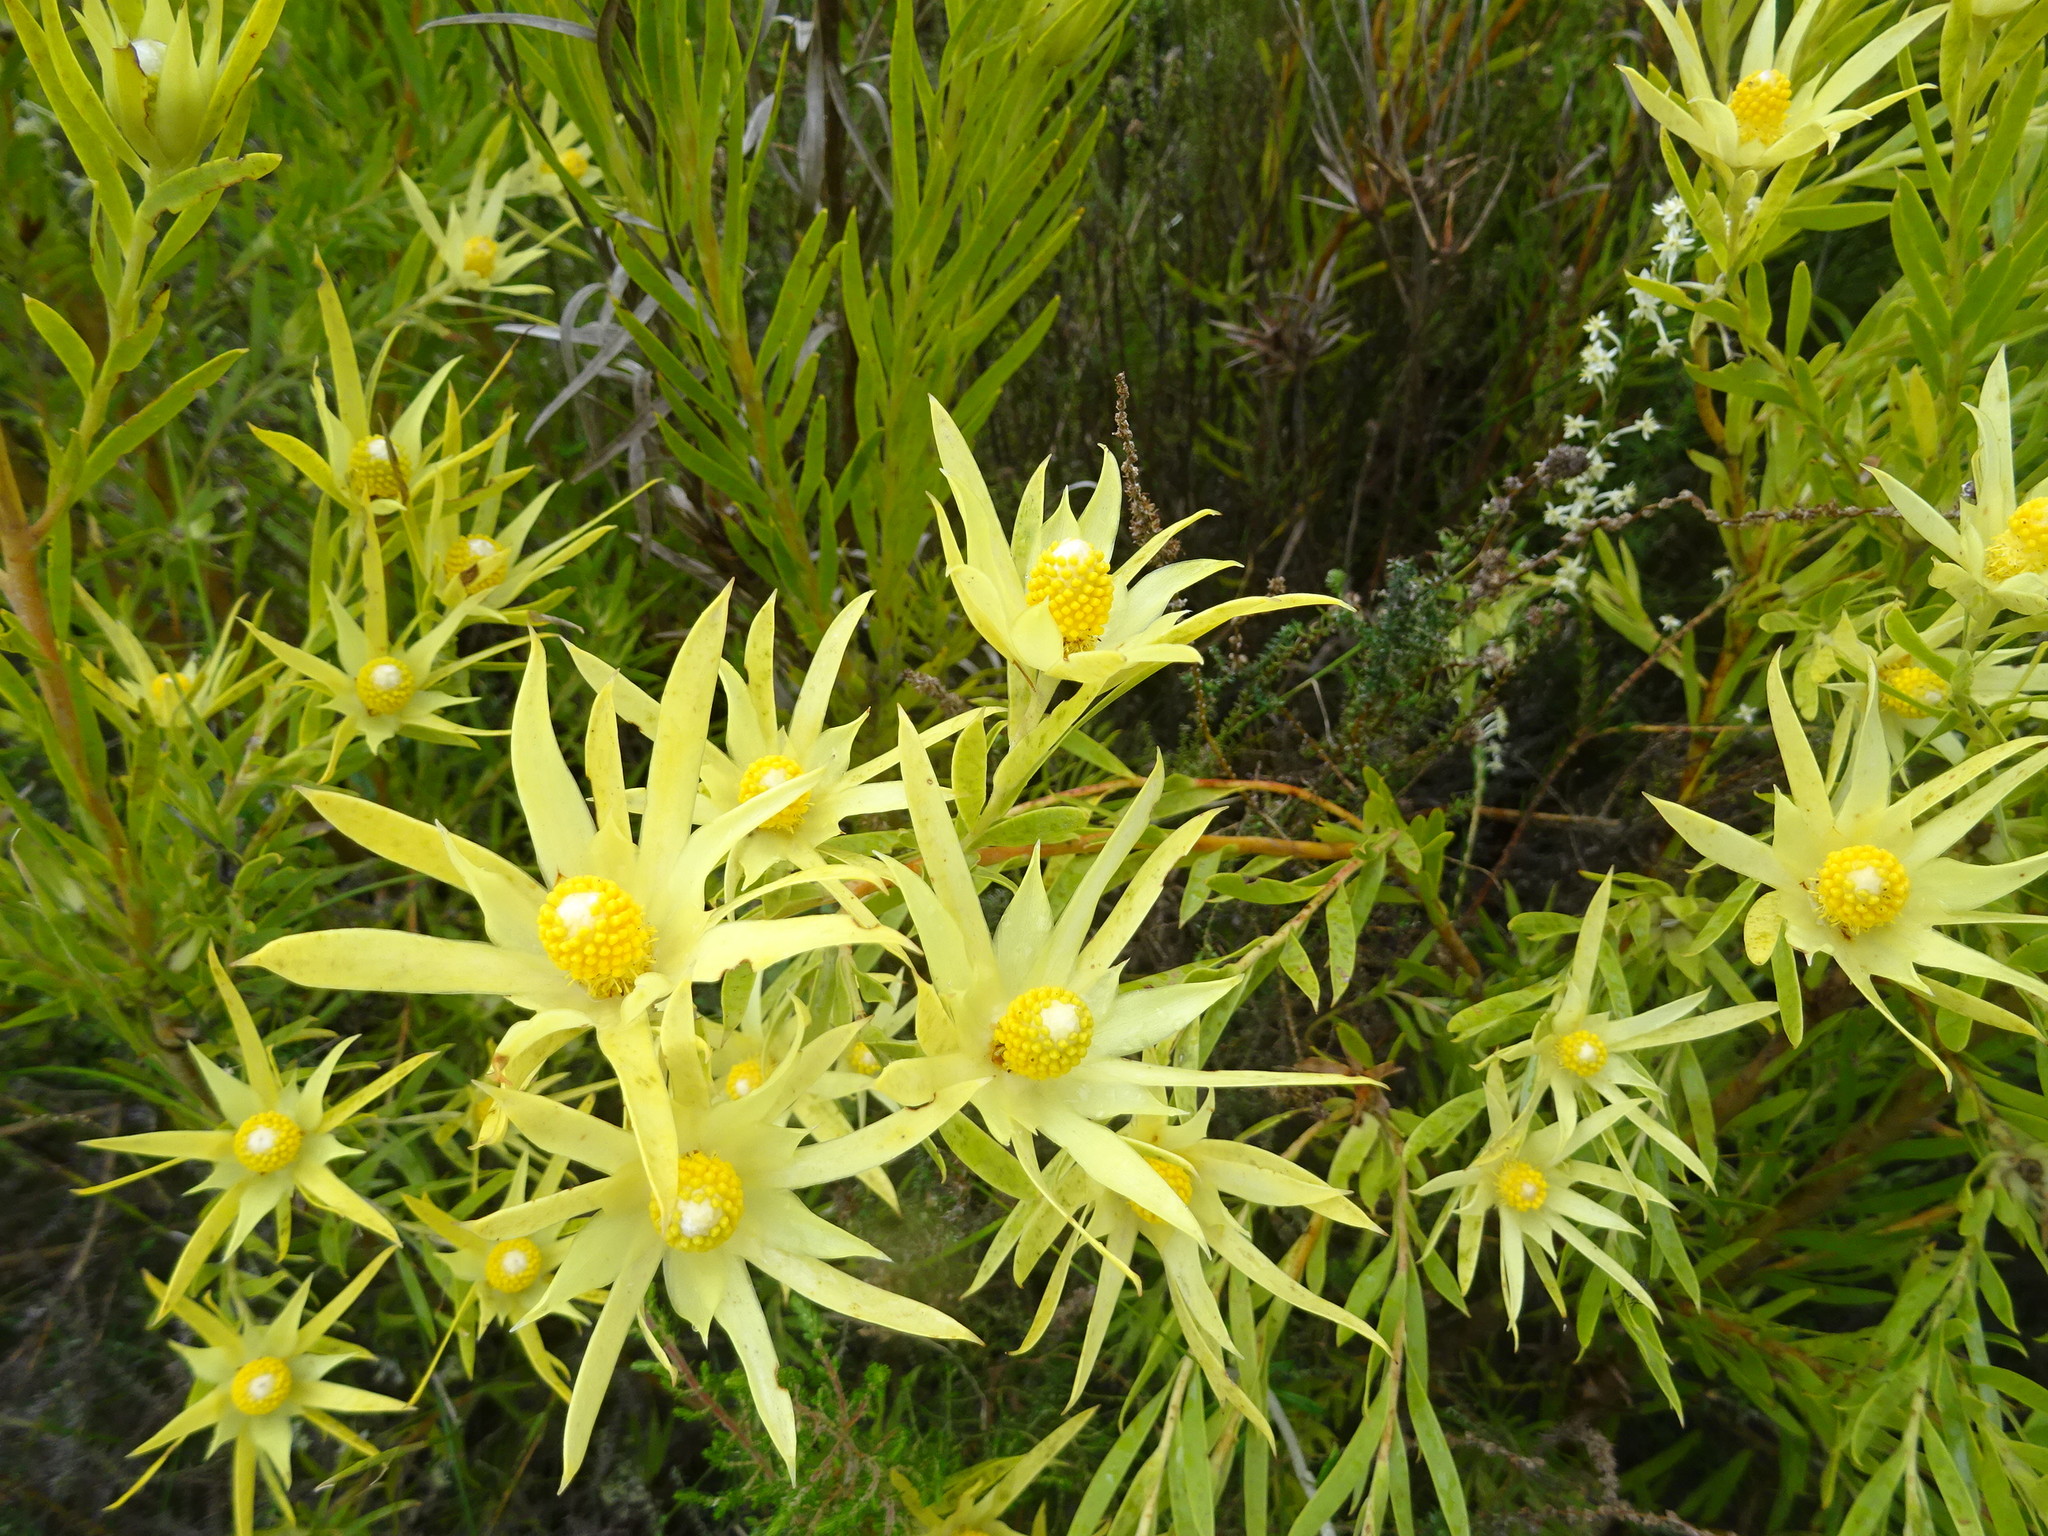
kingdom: Plantae
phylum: Tracheophyta
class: Magnoliopsida
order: Proteales
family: Proteaceae
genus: Leucadendron
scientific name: Leucadendron xanthoconus
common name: Sickle-leaf conebush
